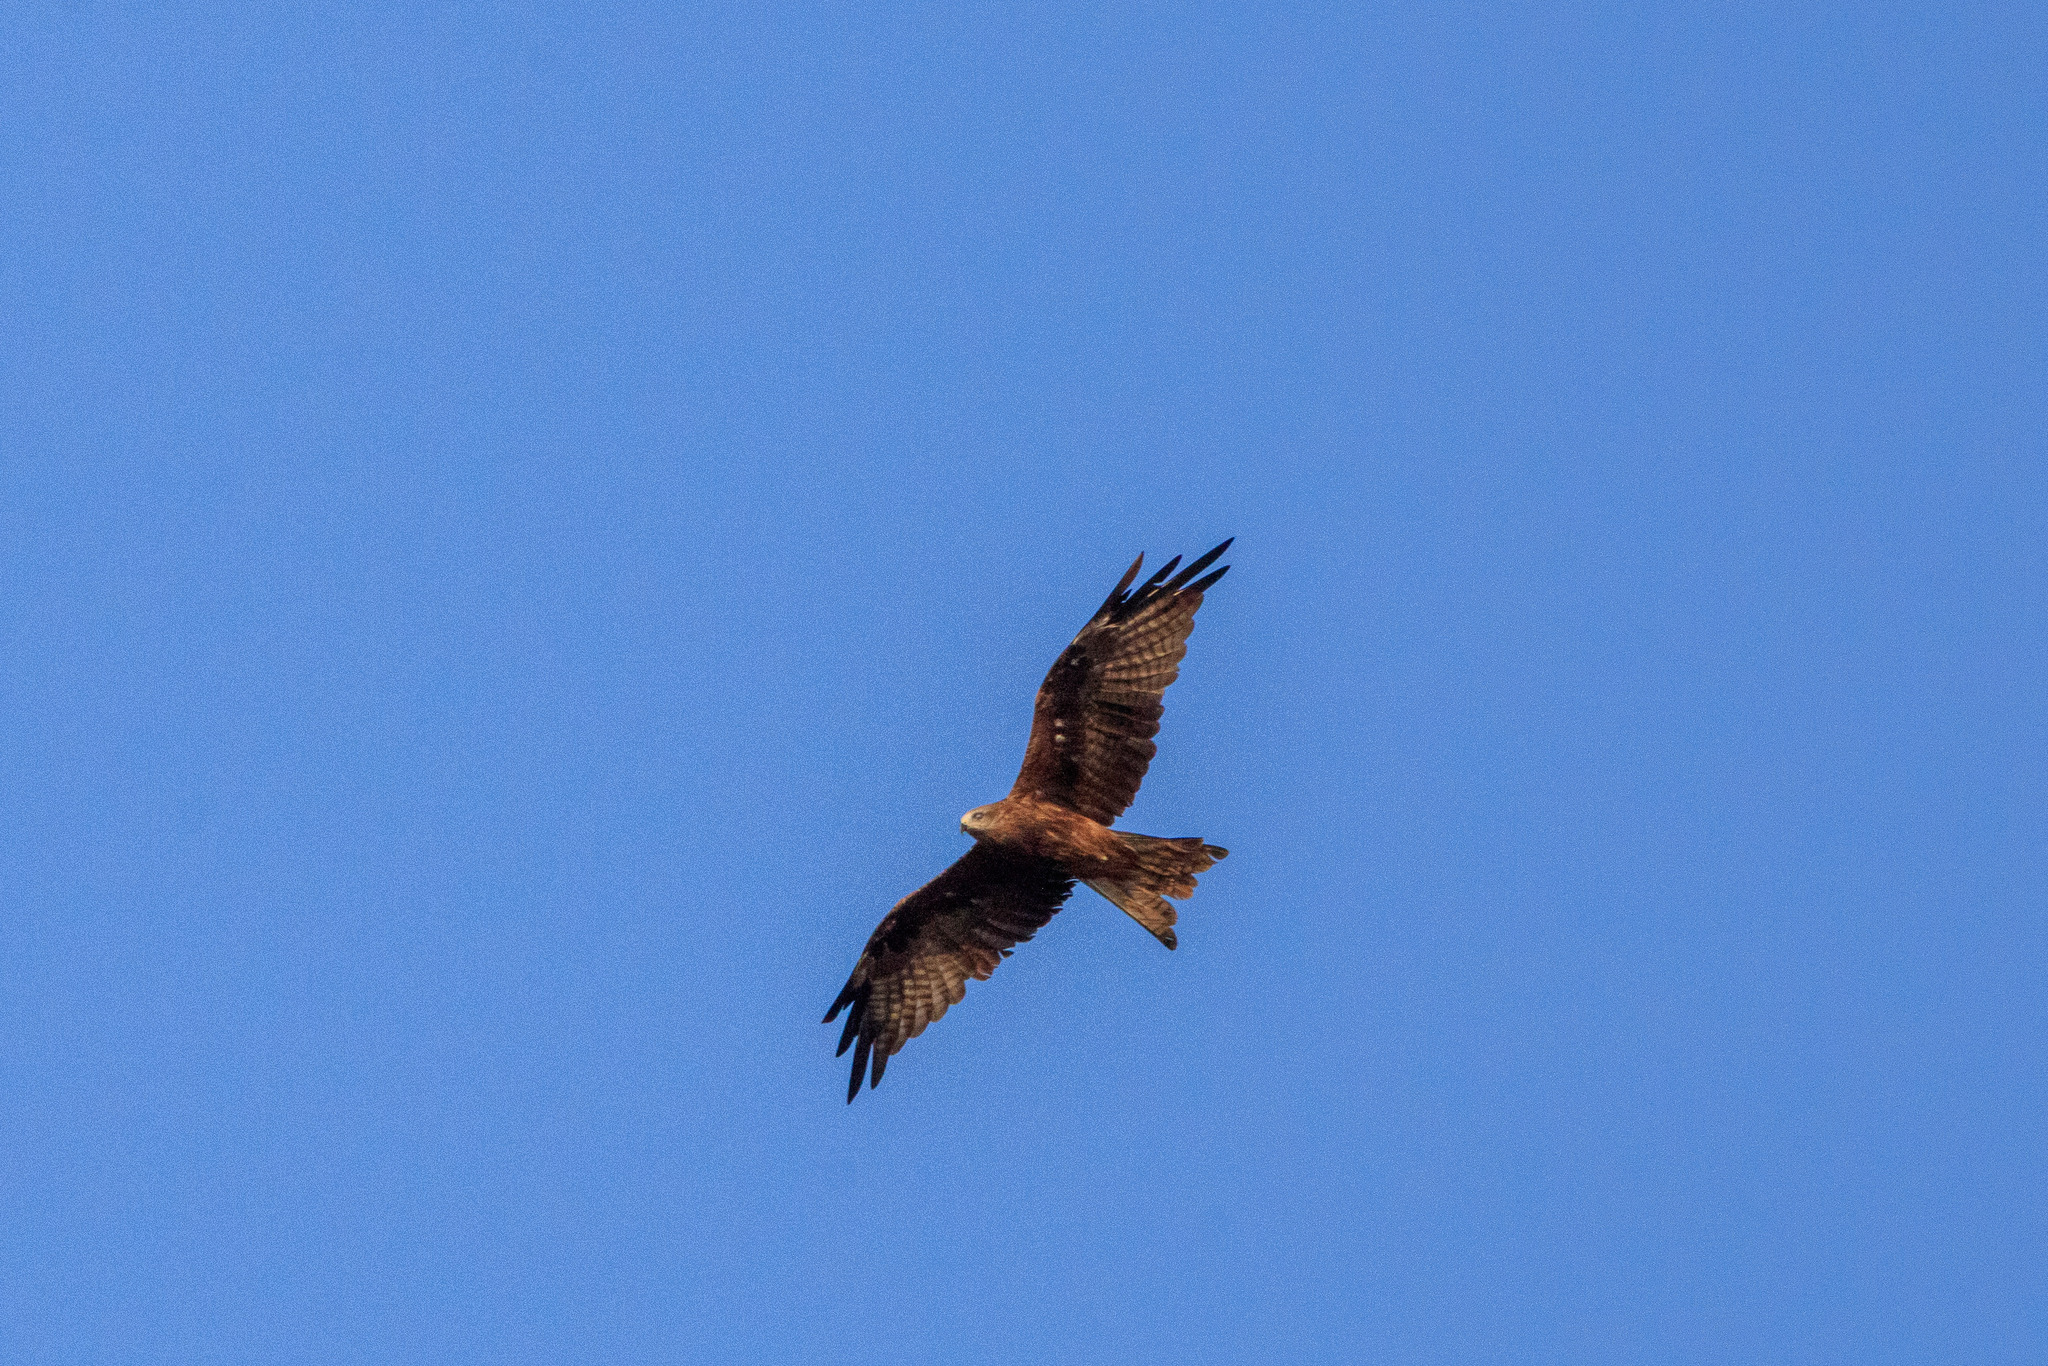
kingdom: Animalia
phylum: Chordata
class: Aves
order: Accipitriformes
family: Accipitridae
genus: Milvus
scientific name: Milvus migrans
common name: Black kite
